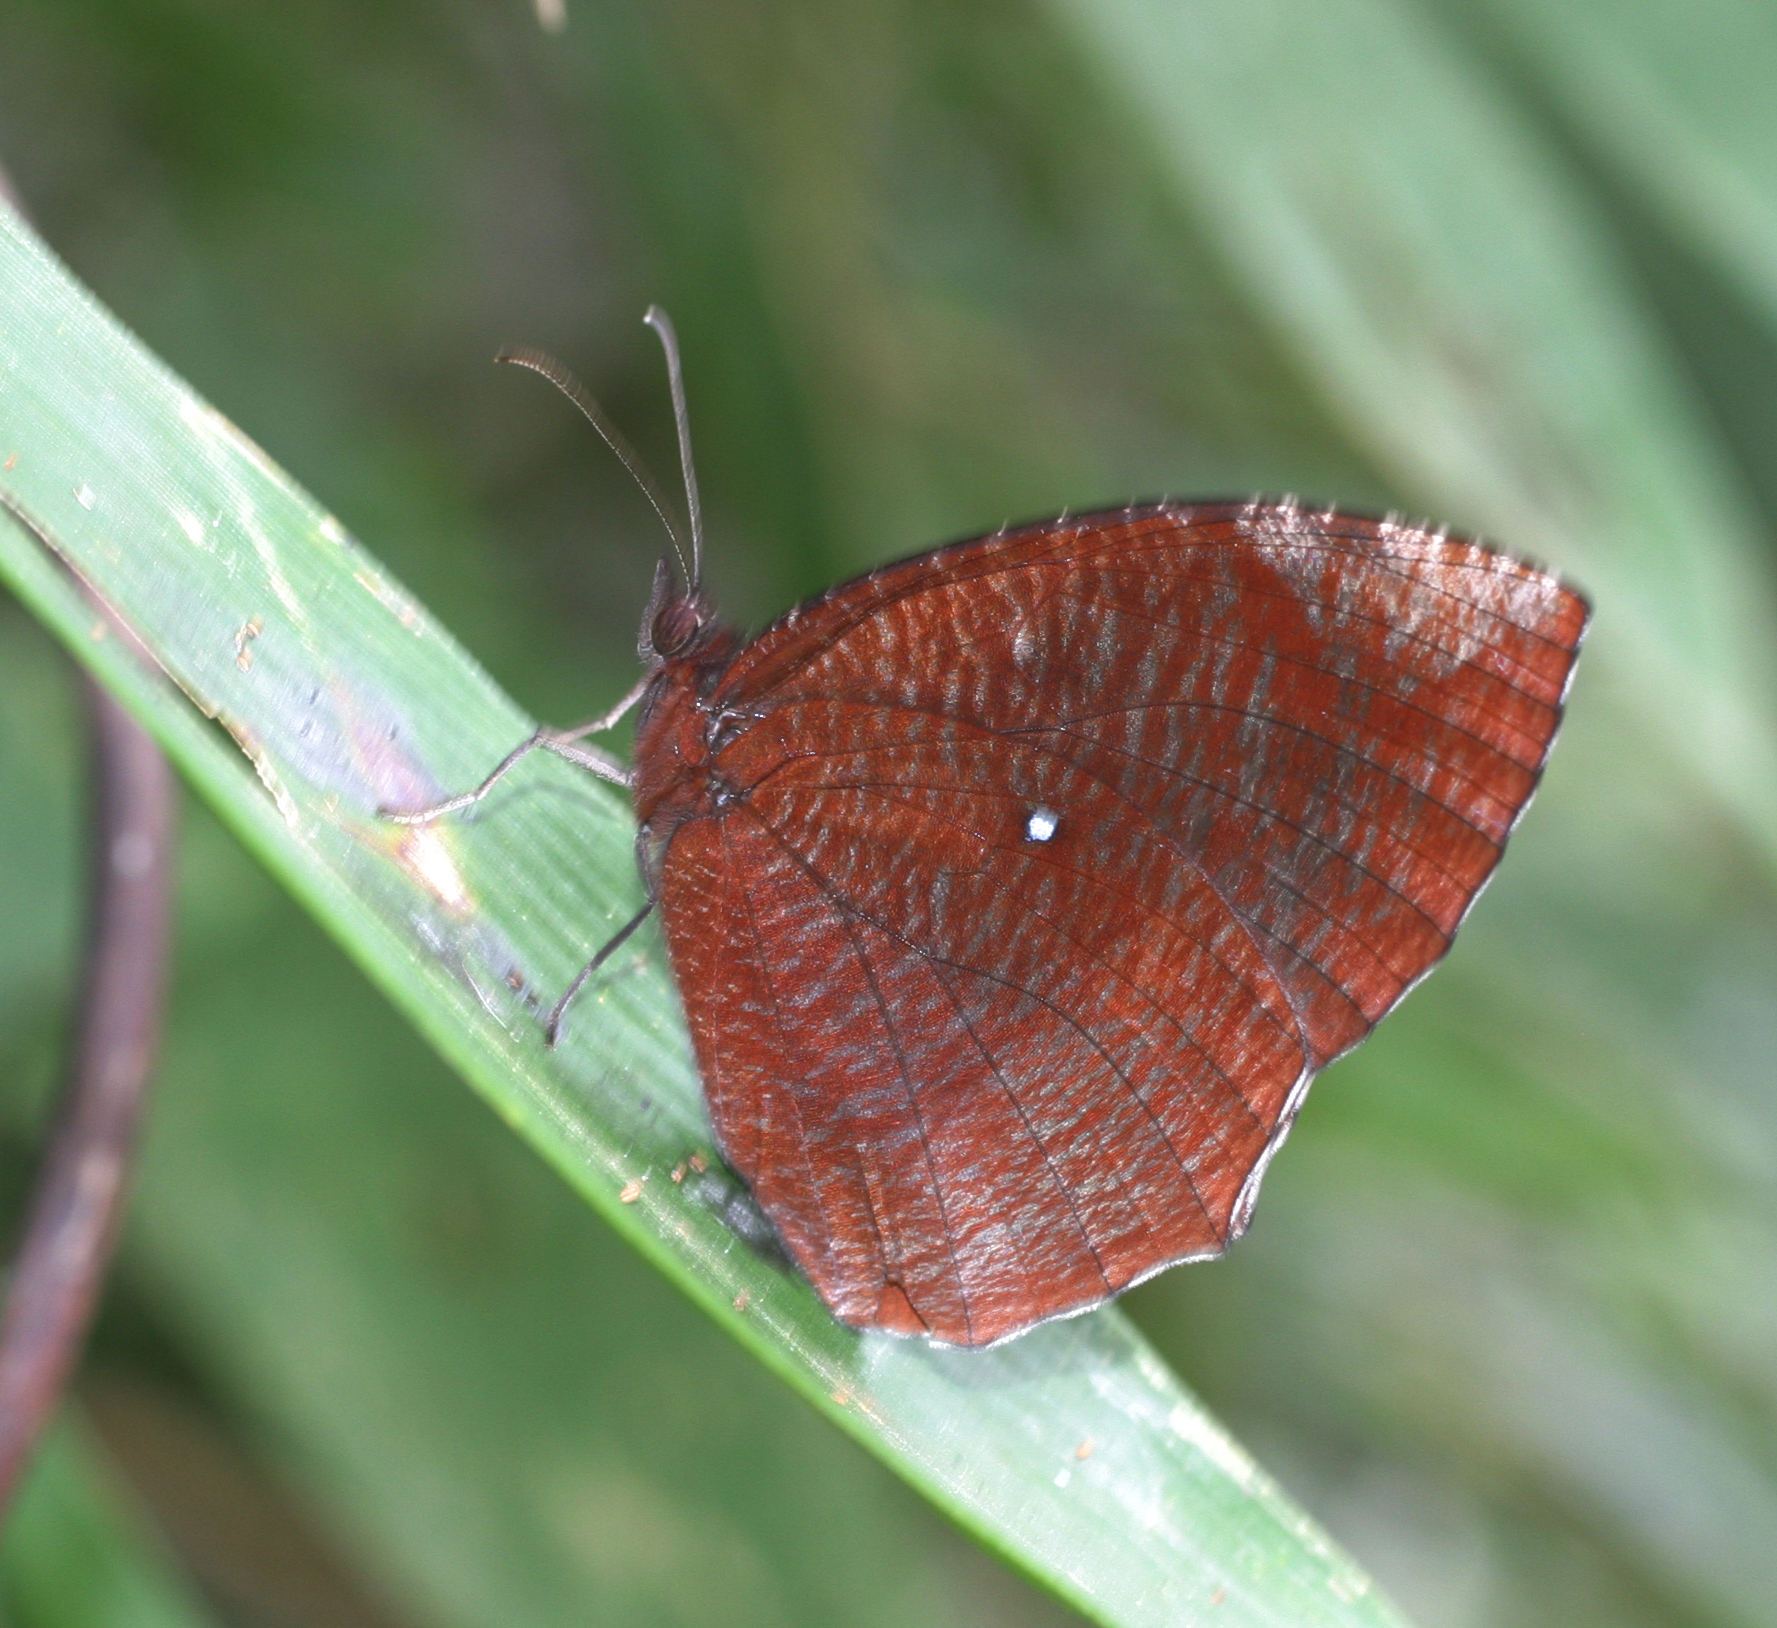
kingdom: Animalia
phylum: Arthropoda
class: Insecta
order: Lepidoptera
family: Nymphalidae
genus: Elymnias
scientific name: Elymnias hypermnestra
